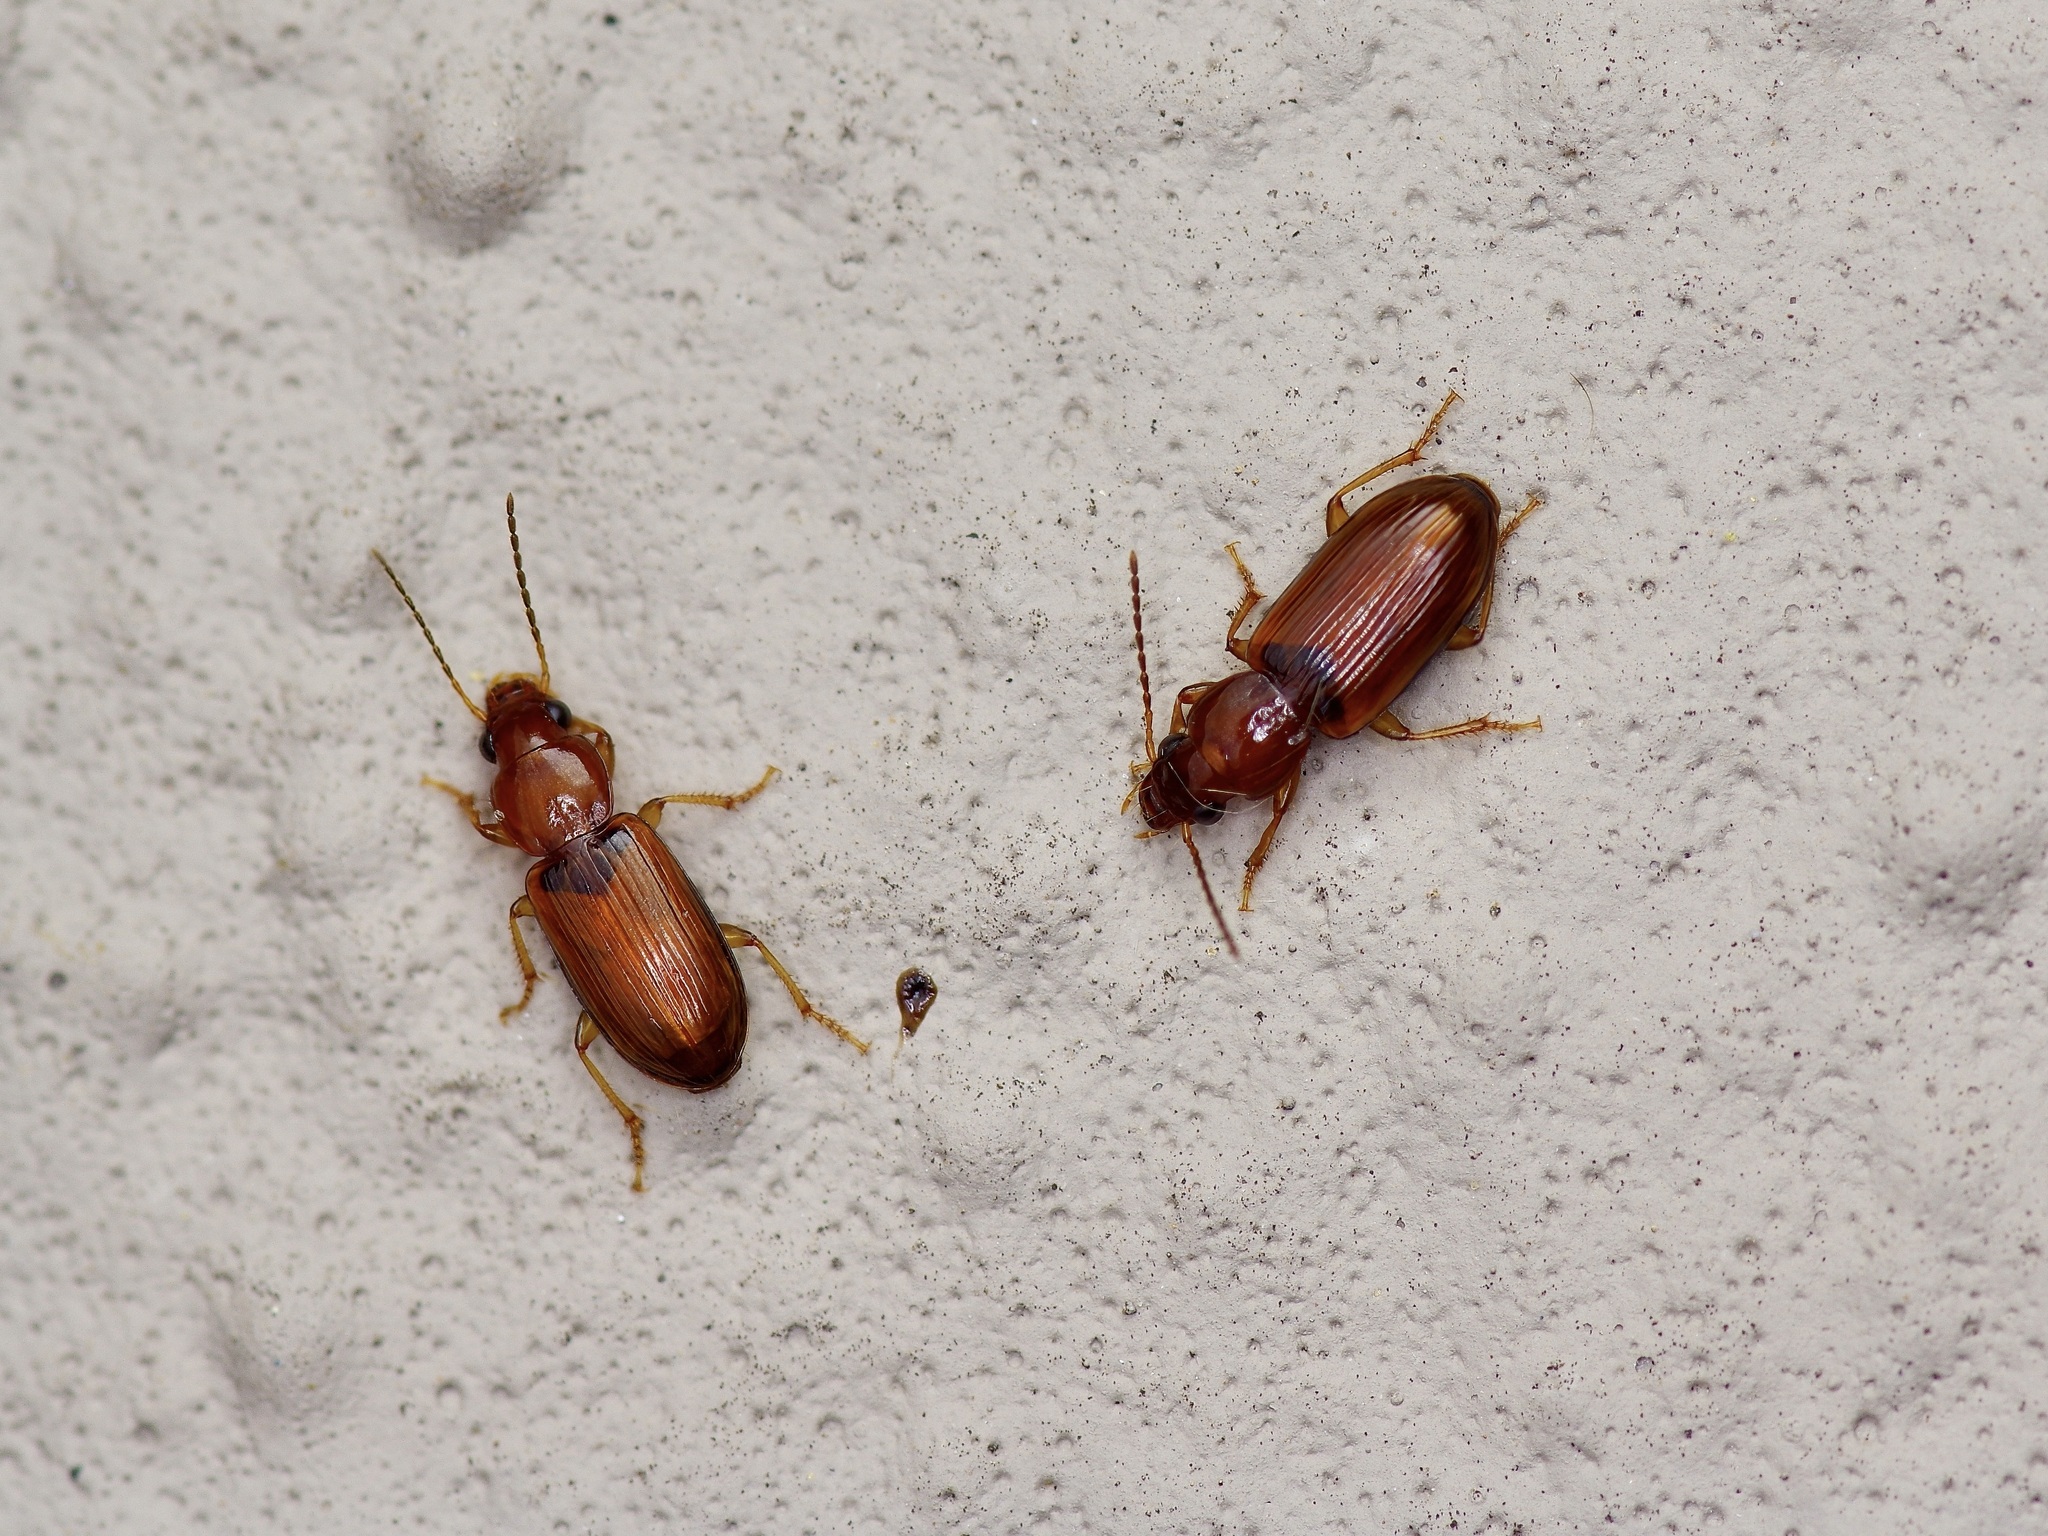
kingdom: Animalia
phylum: Arthropoda
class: Insecta
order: Coleoptera
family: Carabidae
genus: Acupalpus
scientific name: Acupalpus testaceus
